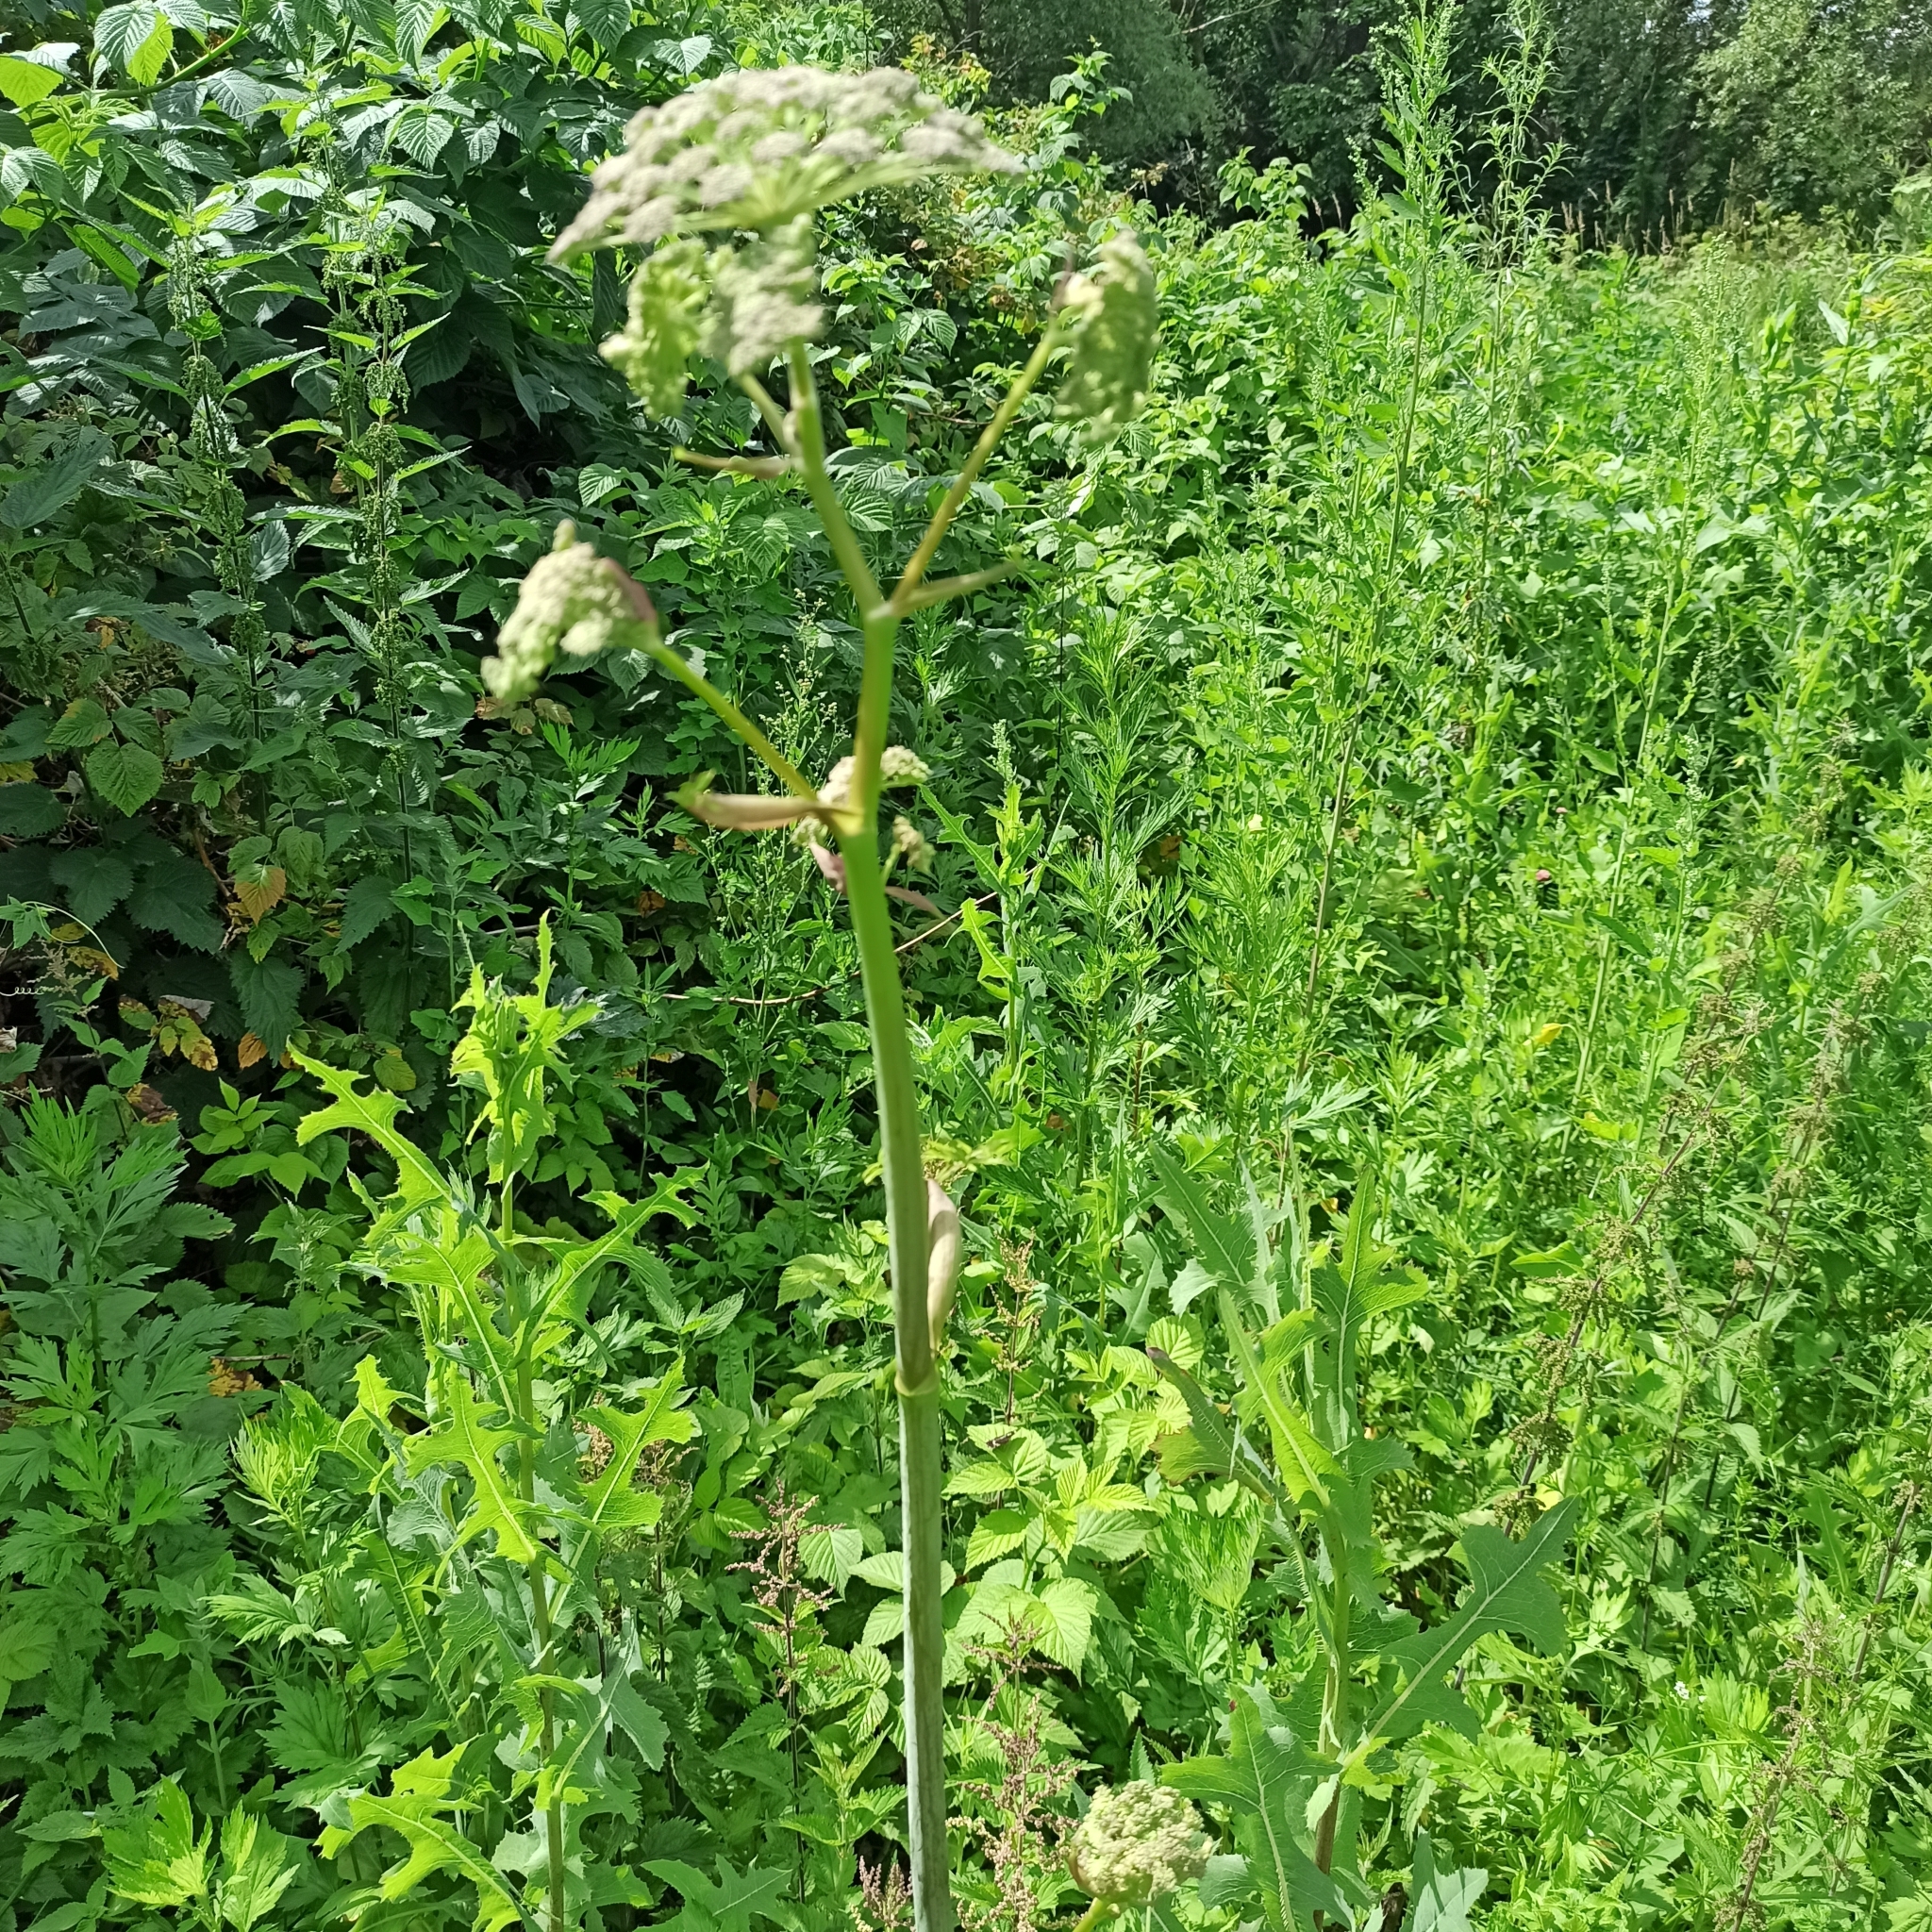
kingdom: Plantae
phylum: Tracheophyta
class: Magnoliopsida
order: Apiales
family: Apiaceae
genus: Angelica
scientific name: Angelica sylvestris
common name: Wild angelica
